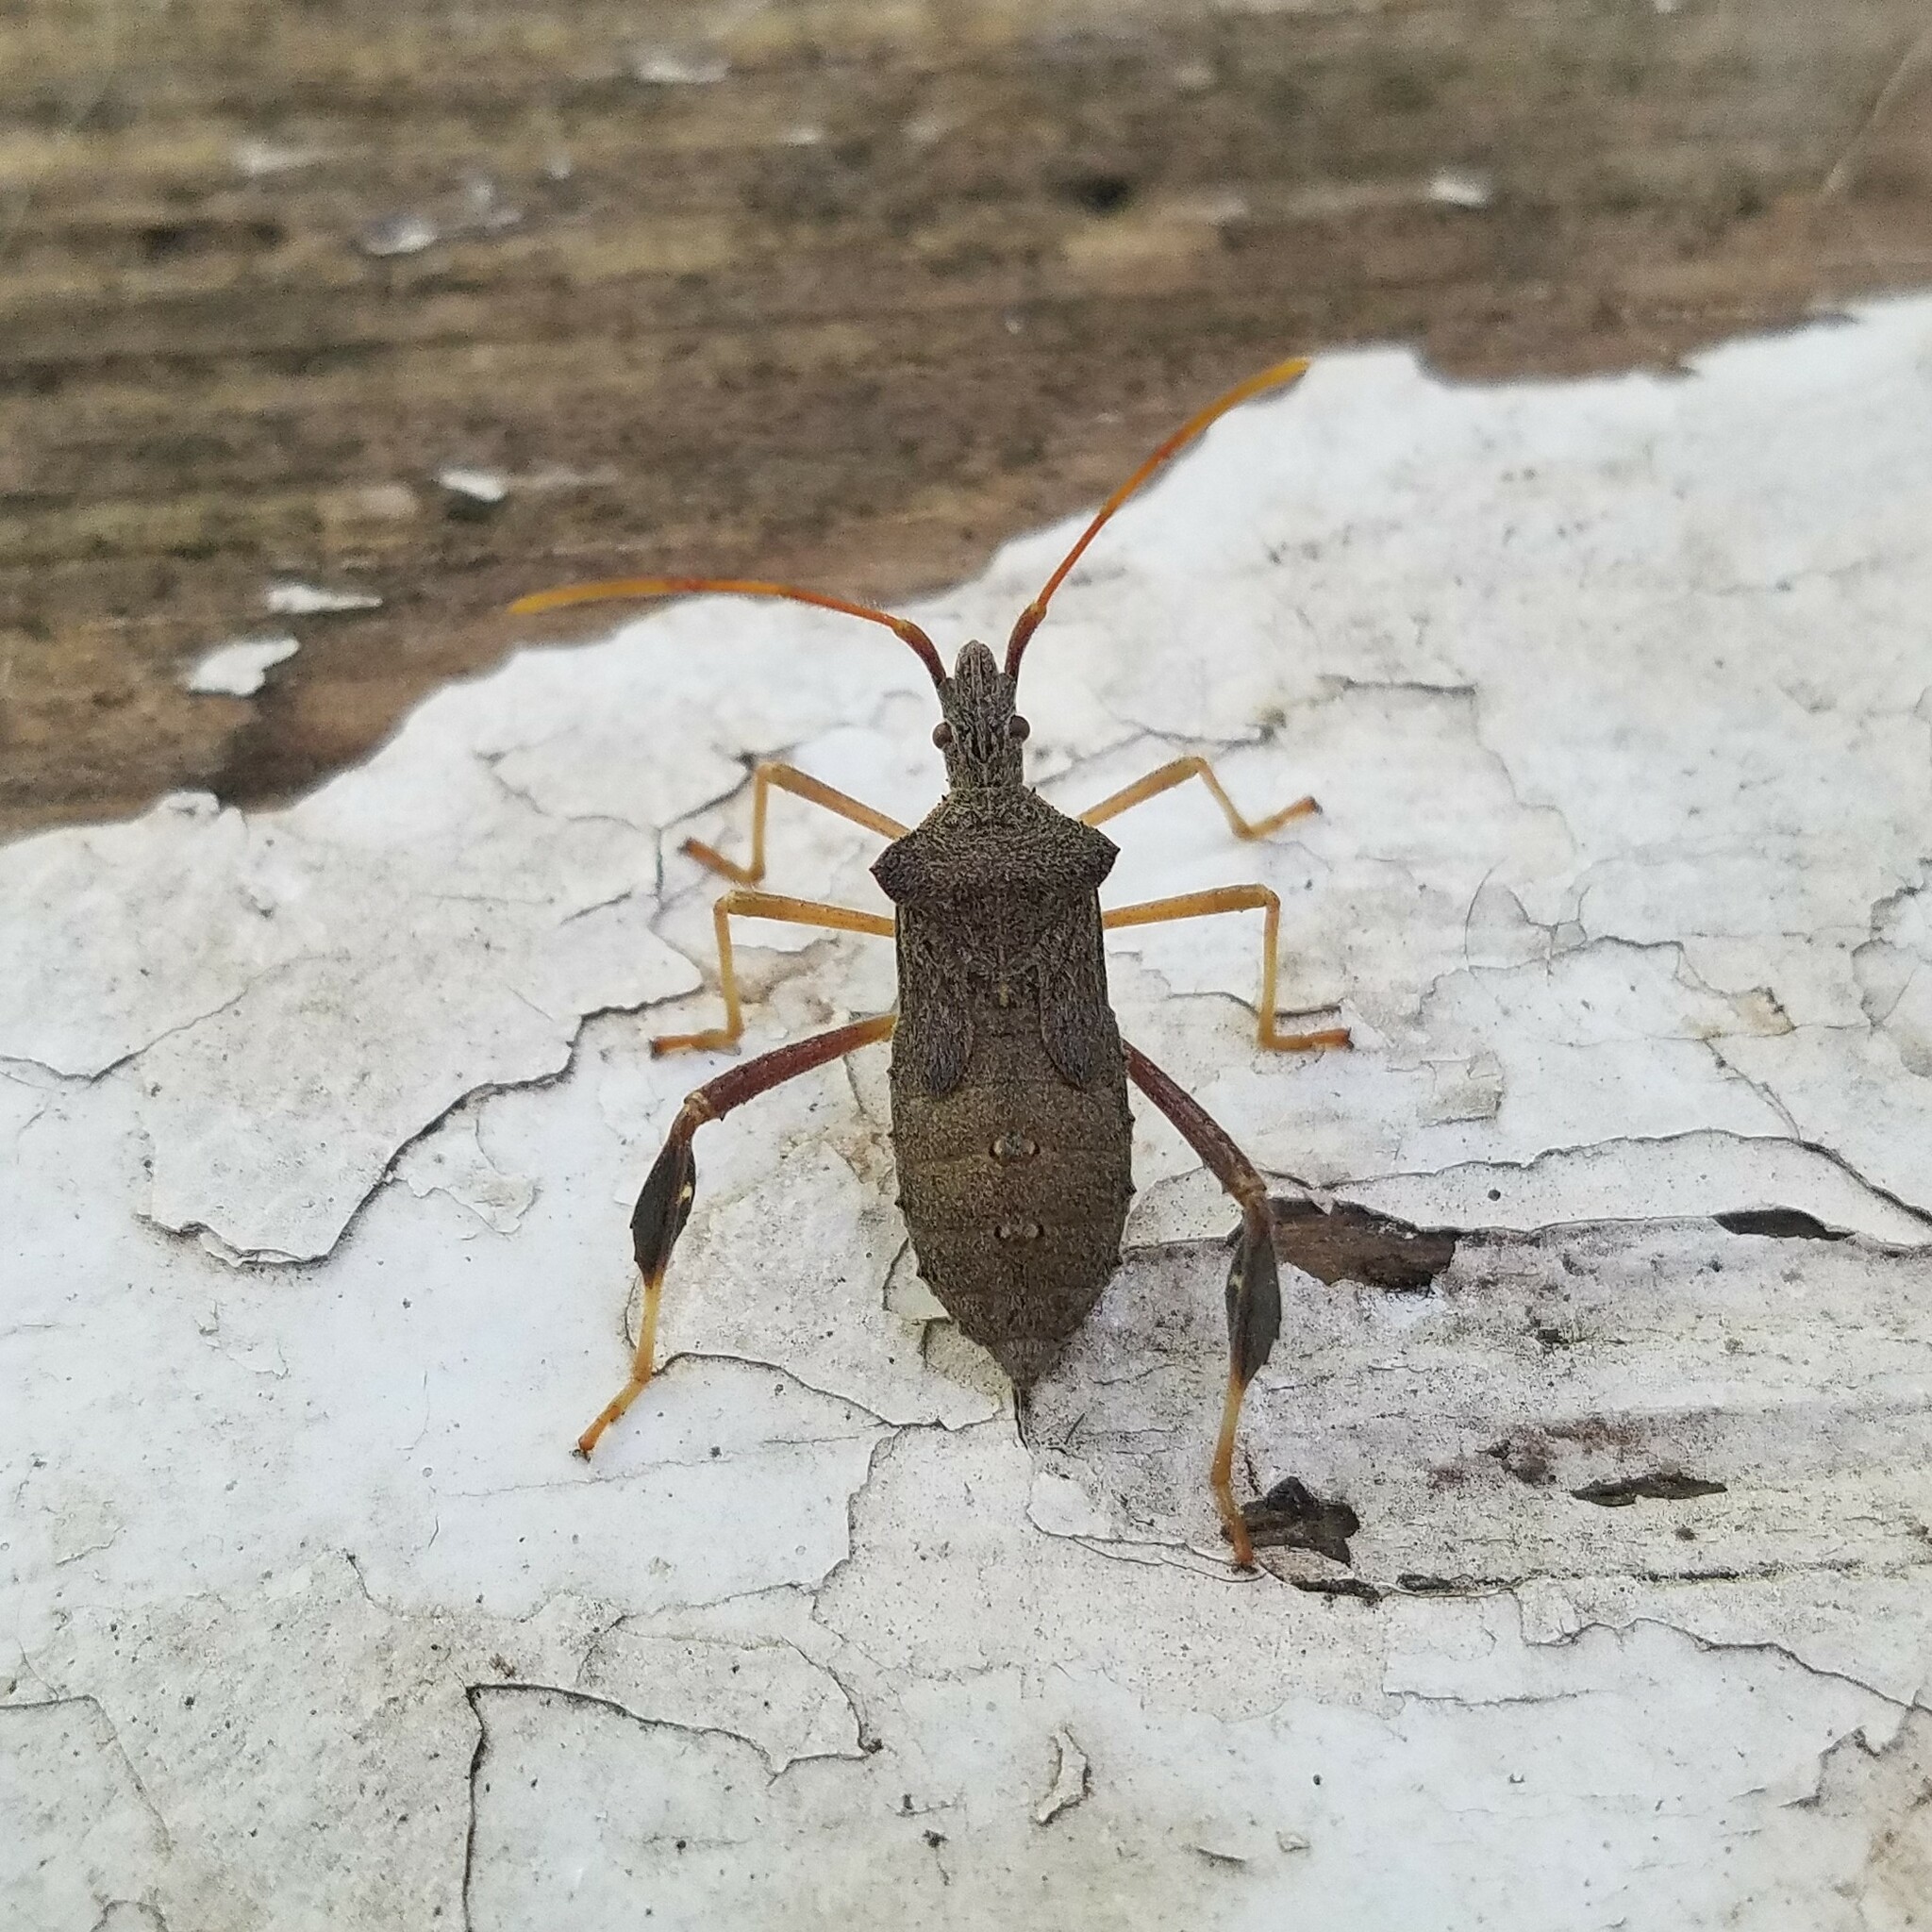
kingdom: Animalia
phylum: Arthropoda
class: Insecta
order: Hemiptera
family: Coreidae
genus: Leptoglossus
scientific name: Leptoglossus fulvicornis
